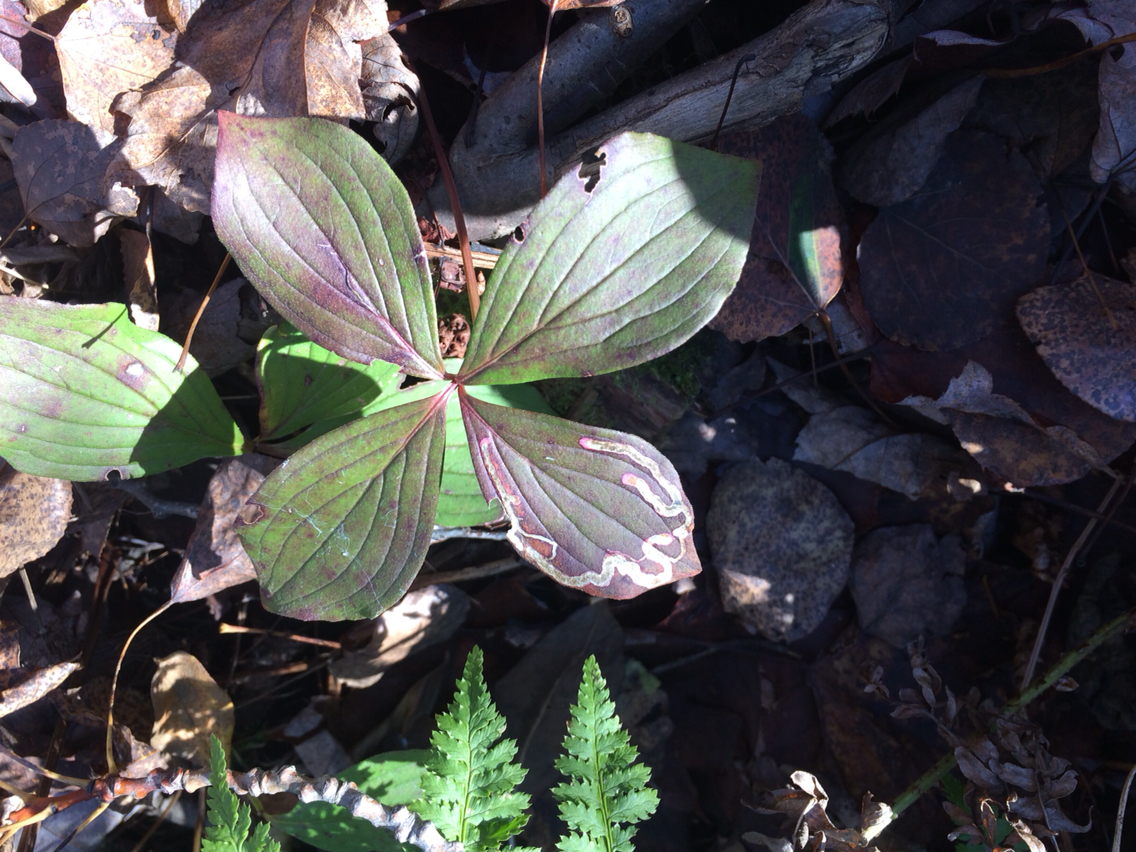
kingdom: Plantae
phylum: Tracheophyta
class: Magnoliopsida
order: Cornales
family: Cornaceae
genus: Cornus
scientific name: Cornus canadensis
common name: Creeping dogwood
